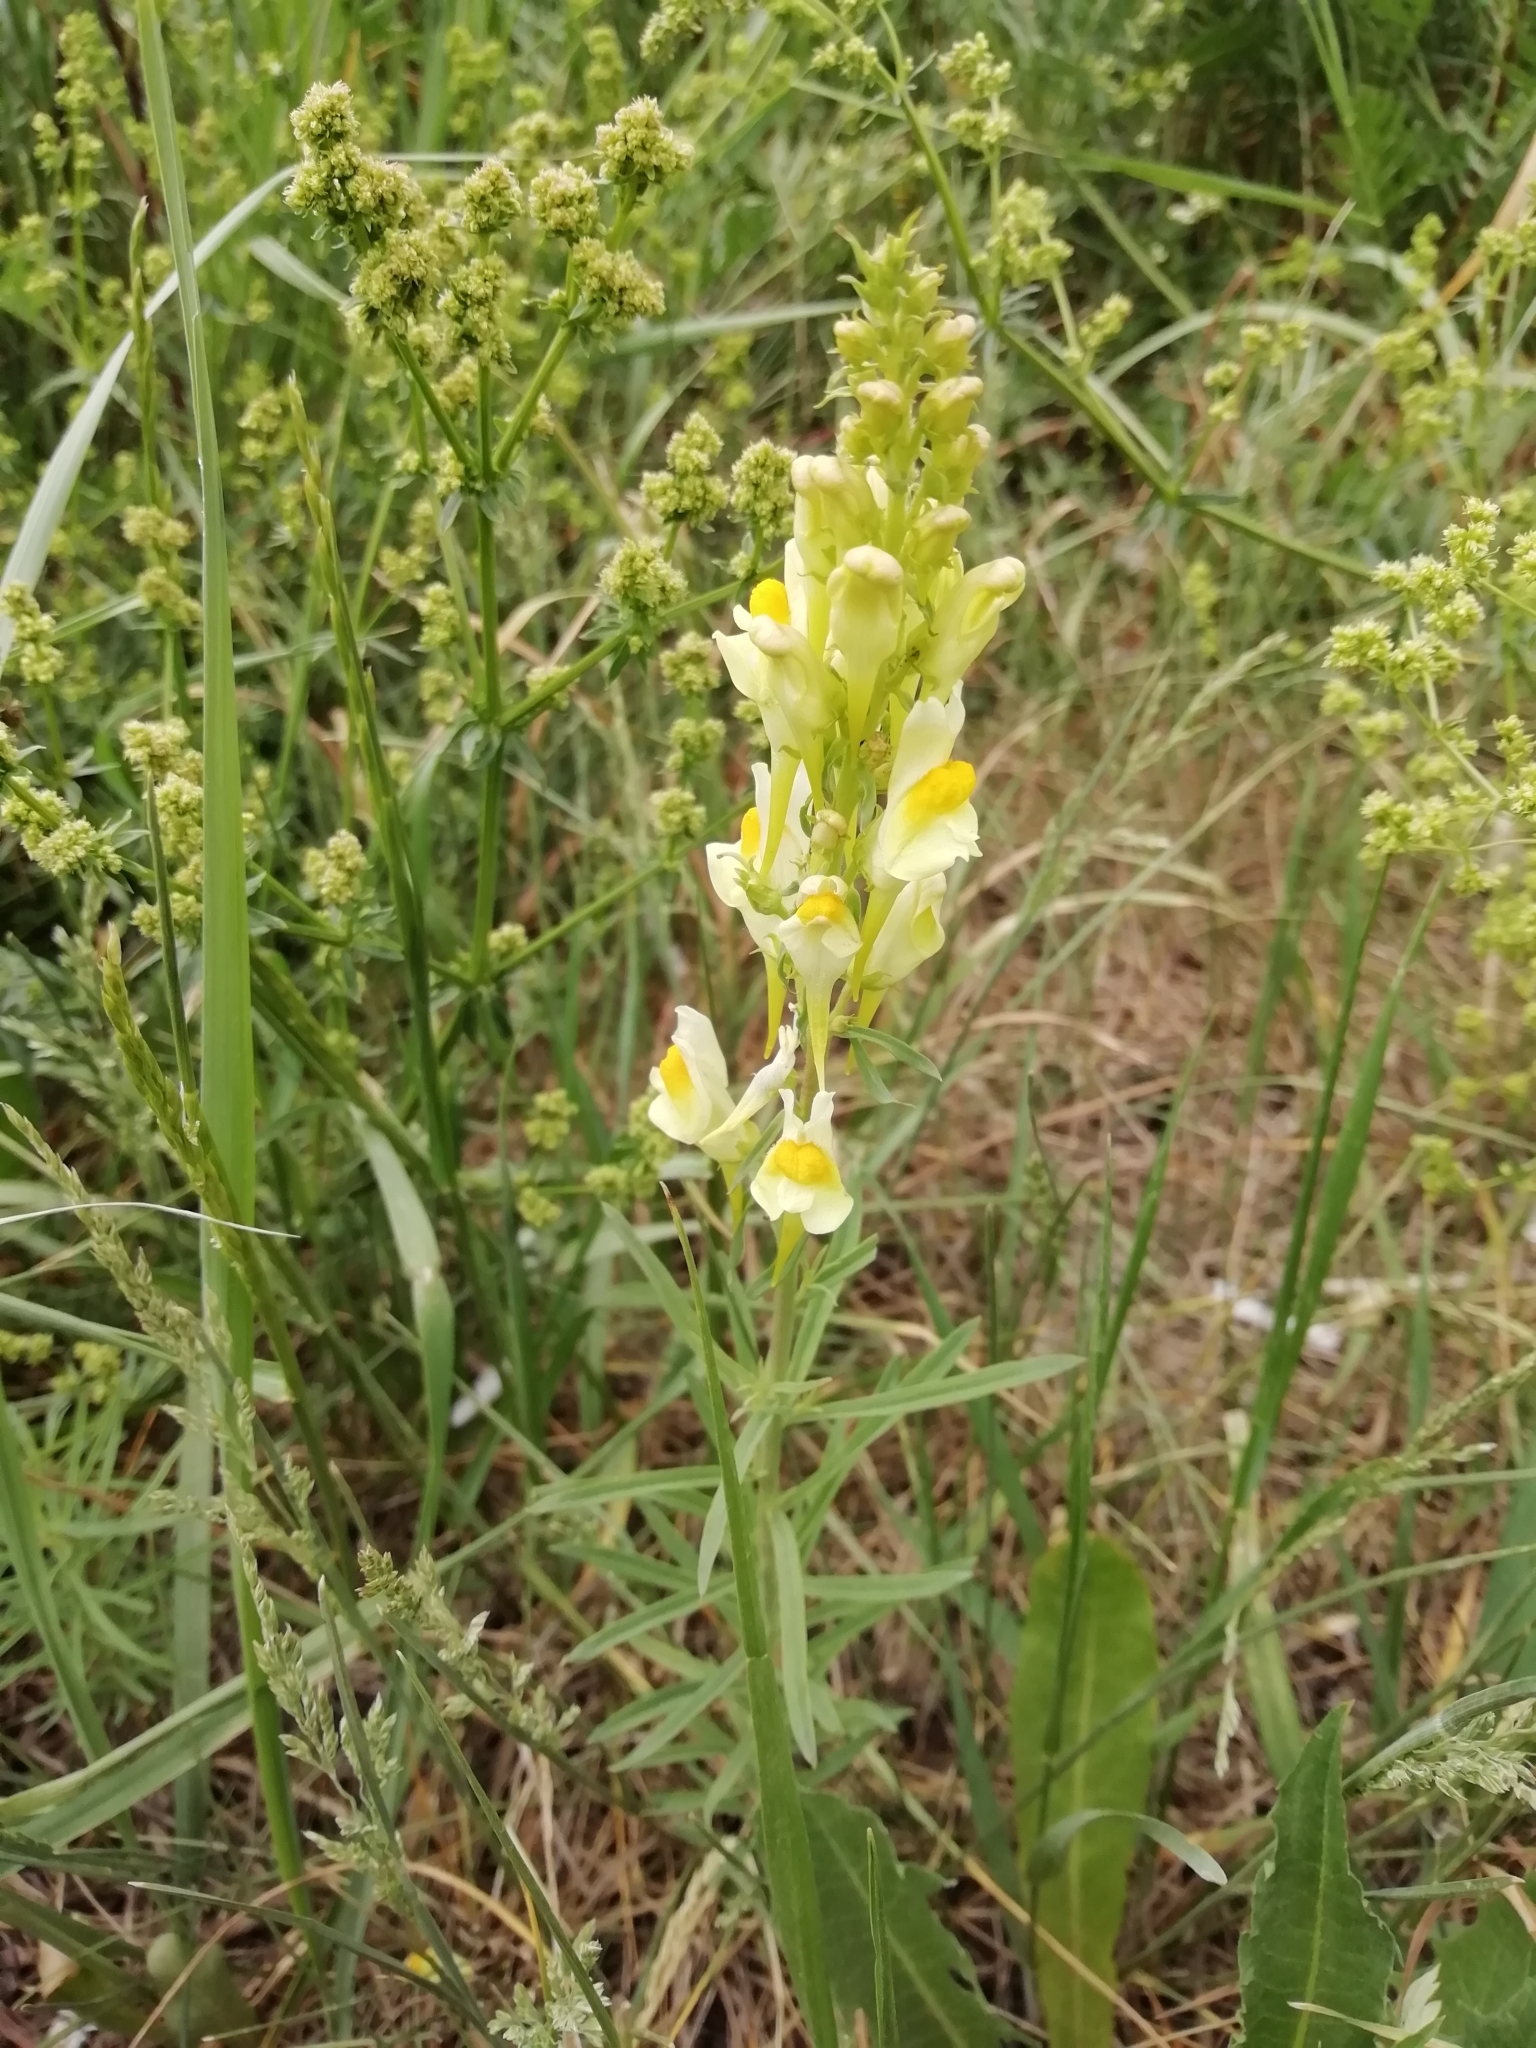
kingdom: Plantae
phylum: Tracheophyta
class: Magnoliopsida
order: Lamiales
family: Plantaginaceae
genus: Linaria
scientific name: Linaria vulgaris
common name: Butter and eggs
